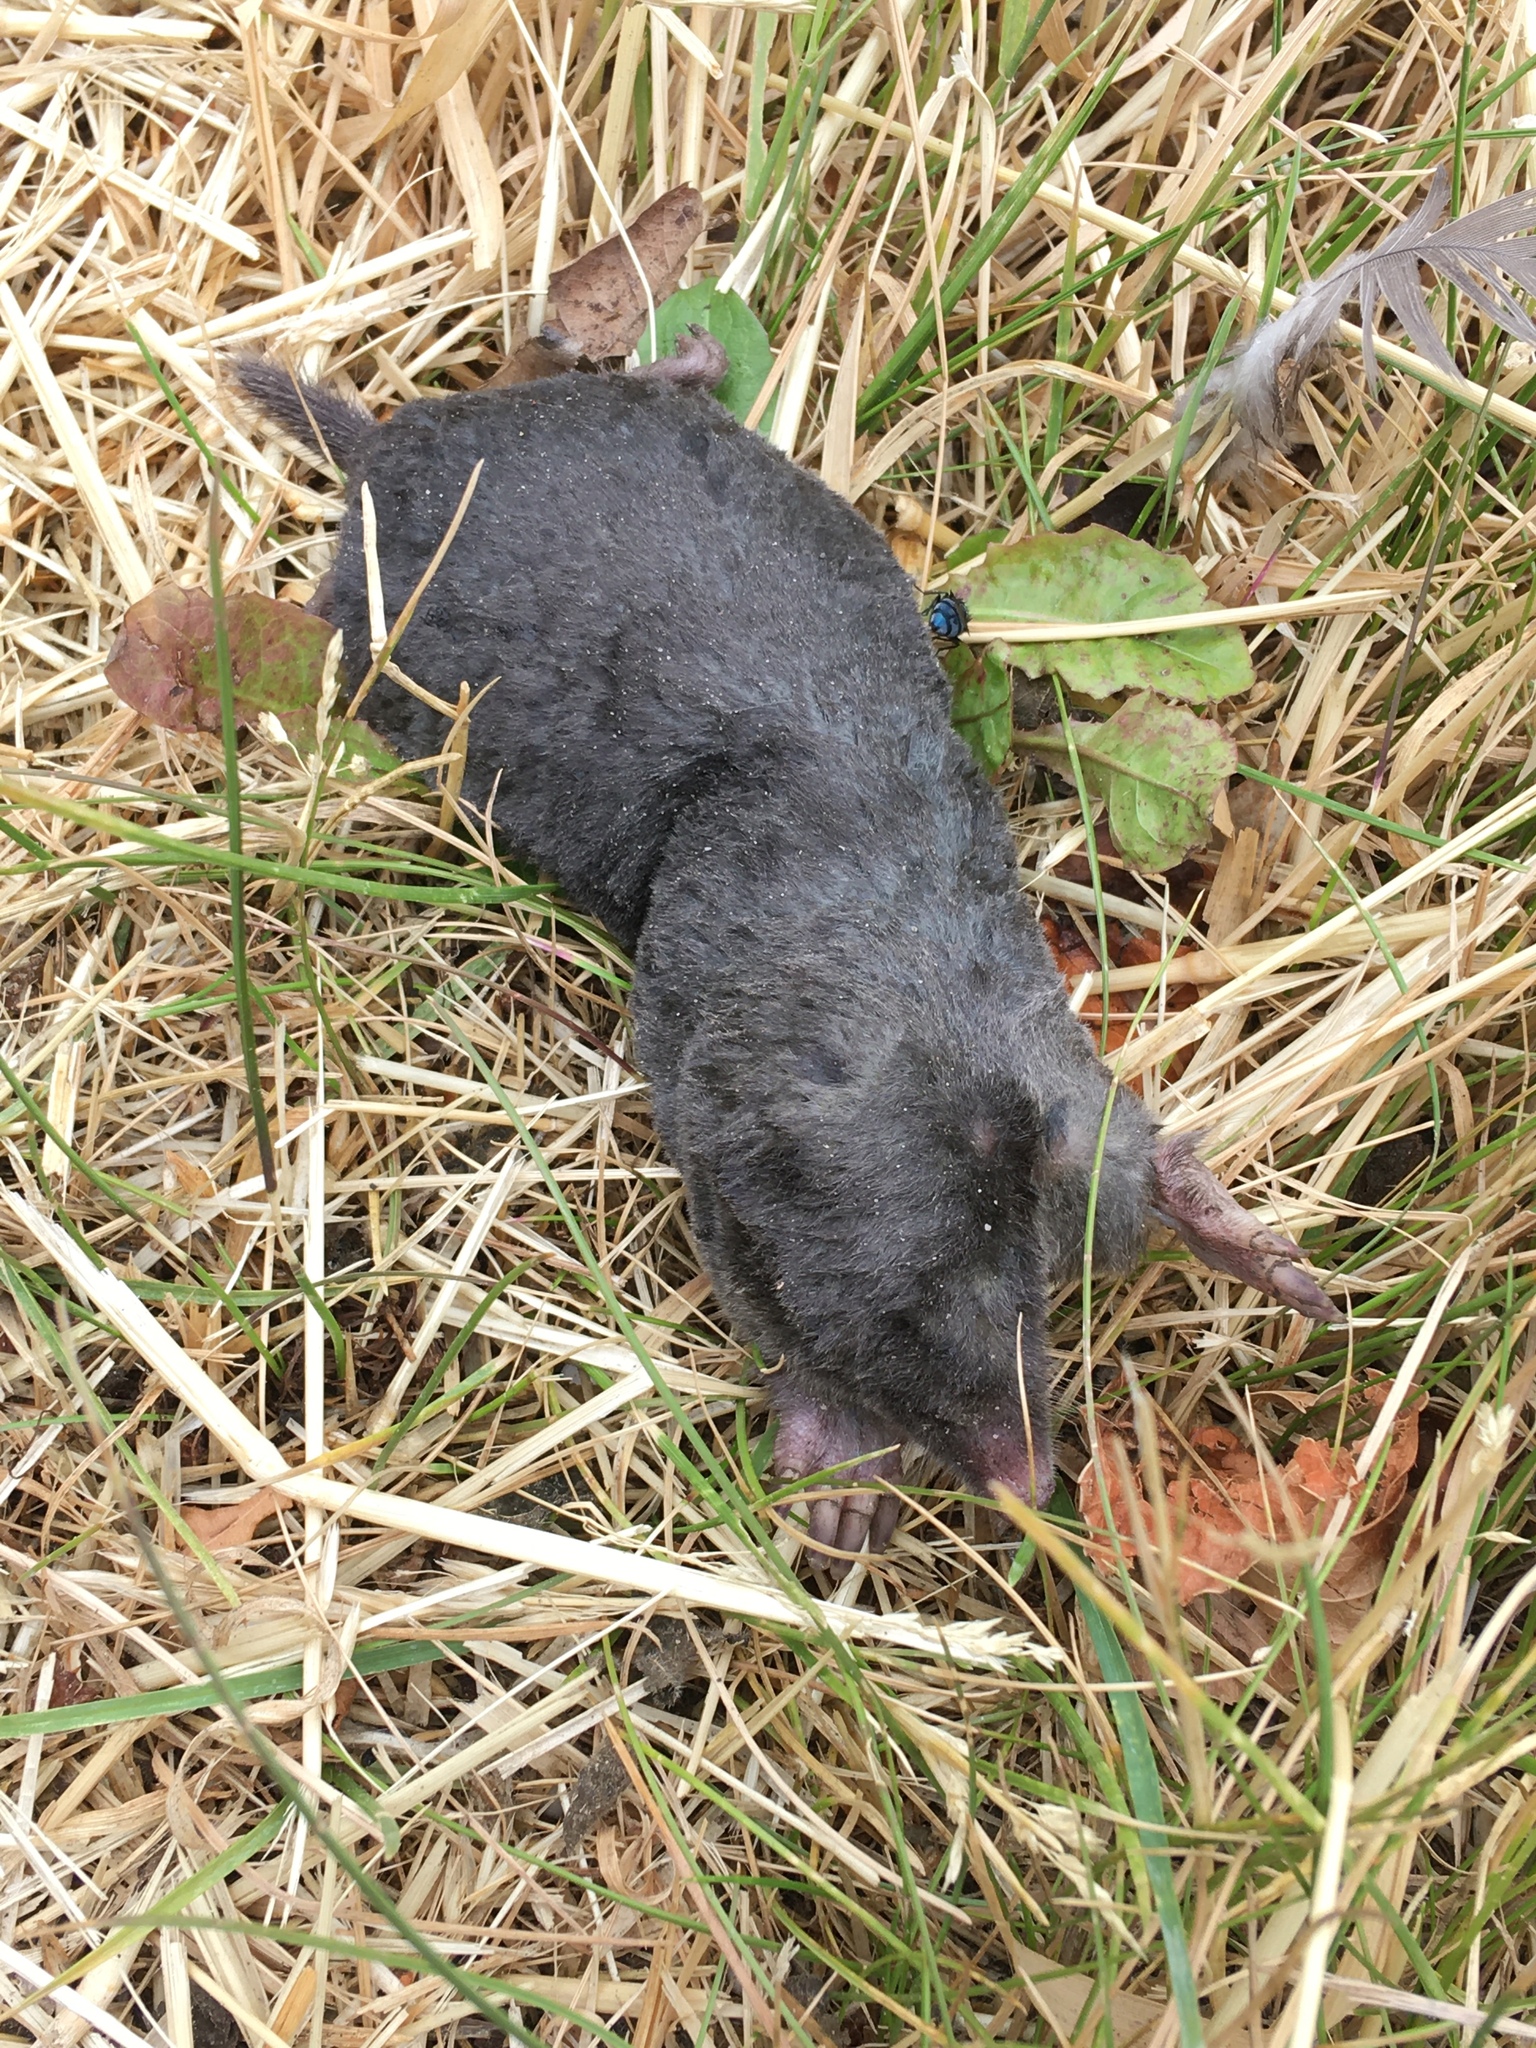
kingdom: Animalia
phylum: Chordata
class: Mammalia
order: Soricomorpha
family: Talpidae
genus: Talpa
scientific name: Talpa europaea
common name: European mole
